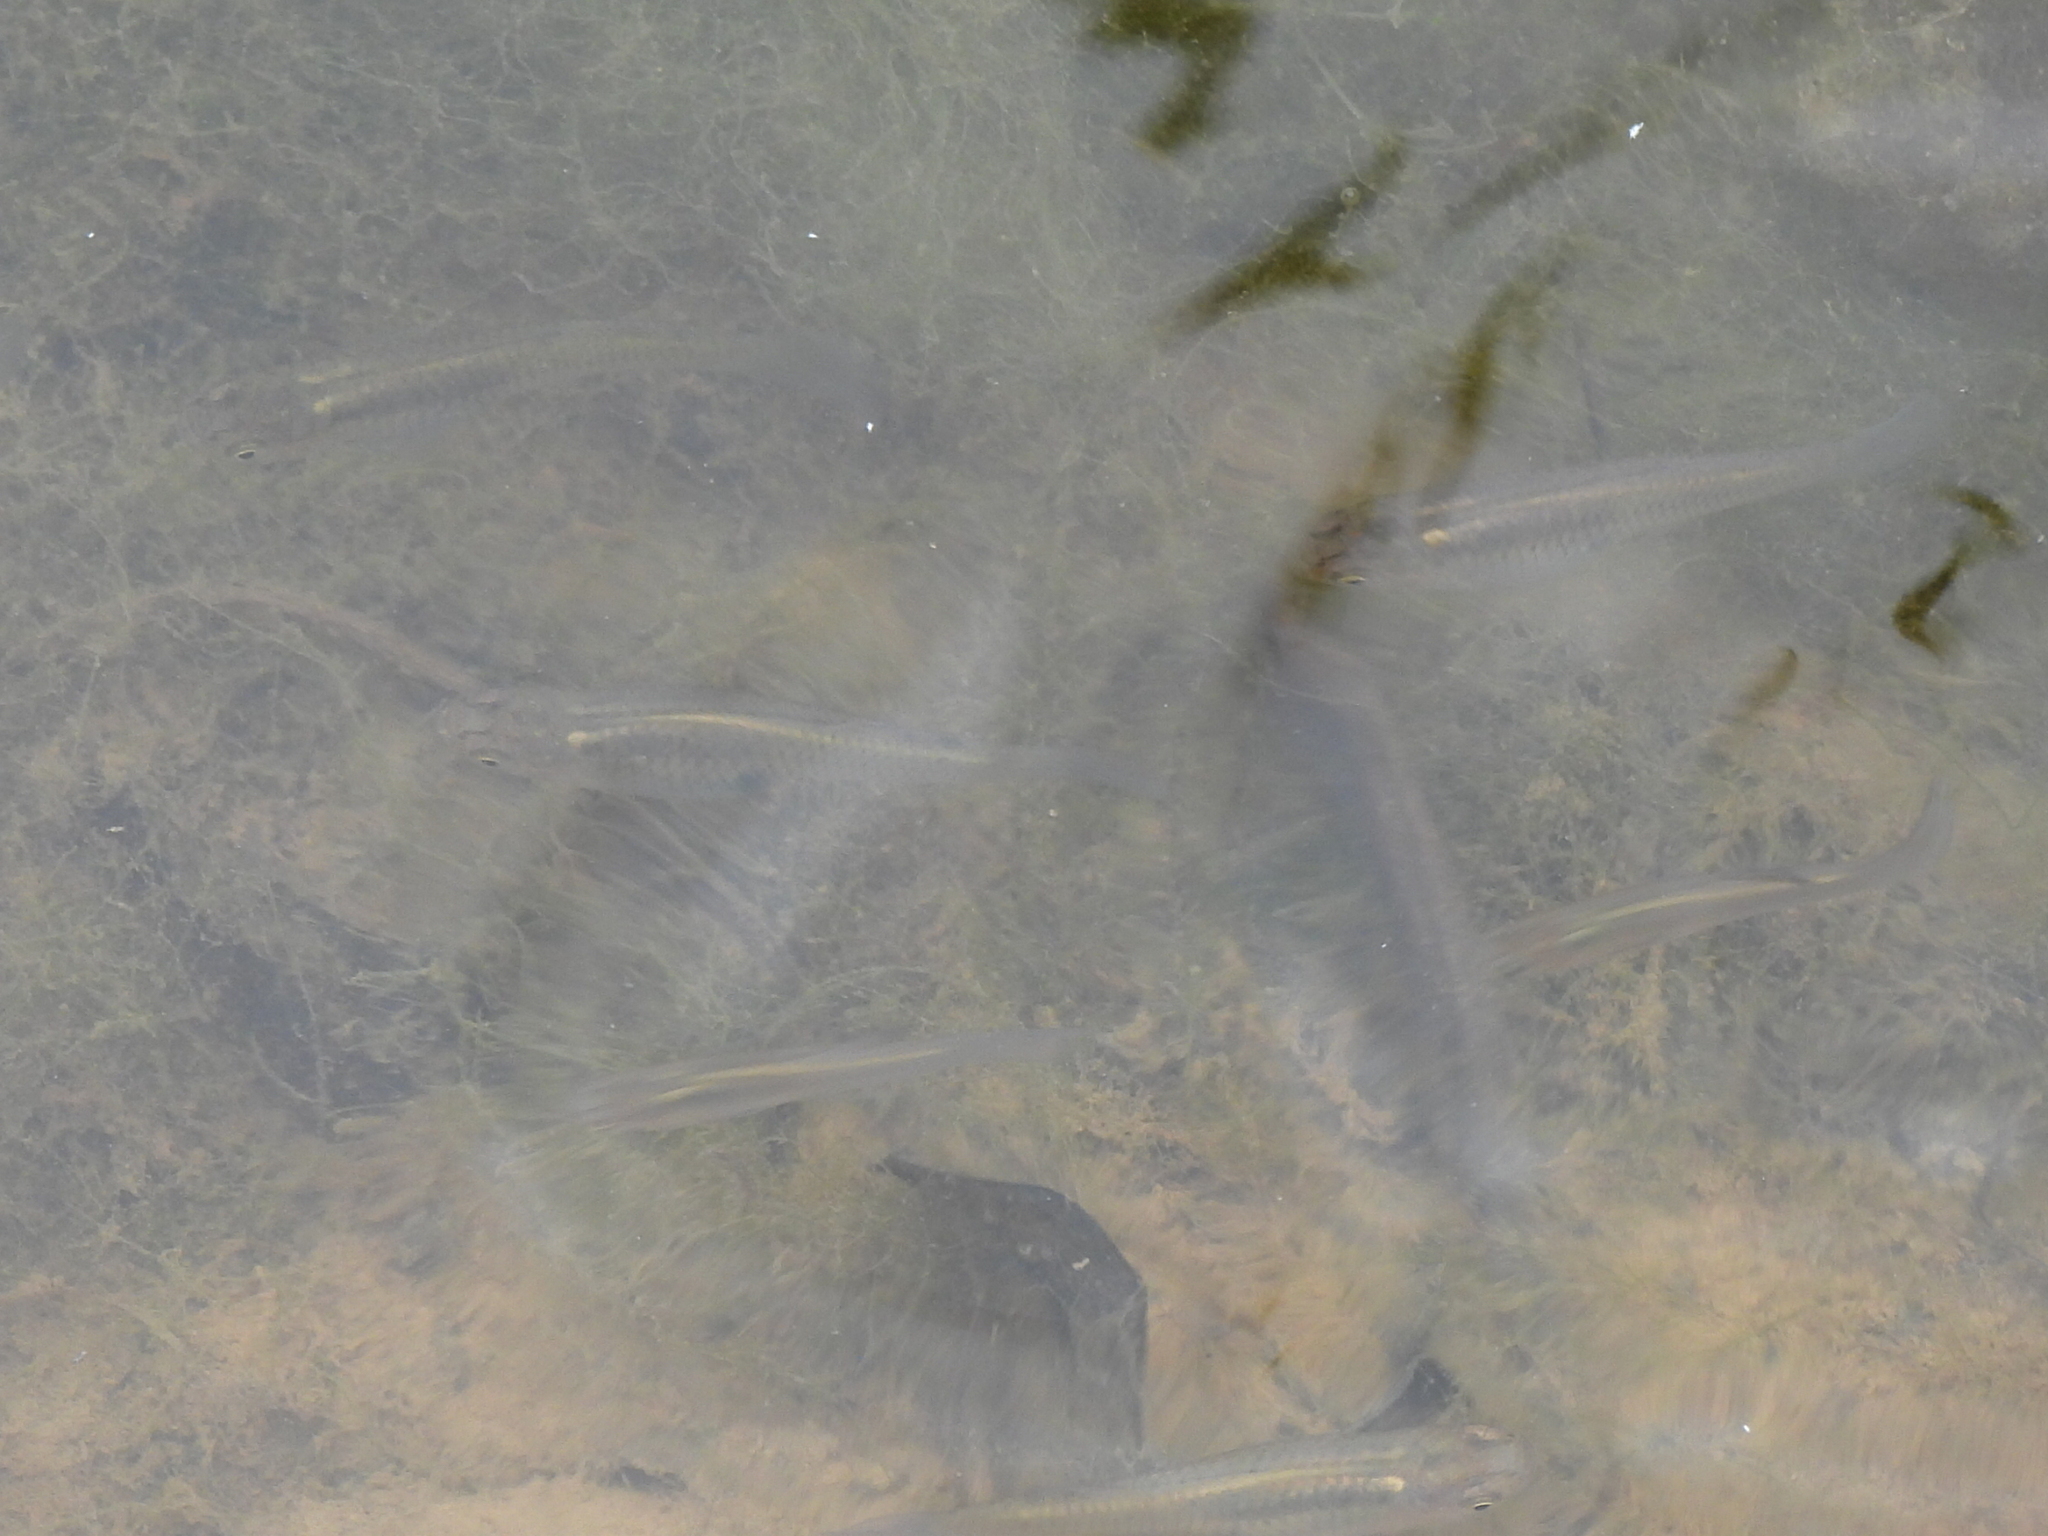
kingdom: Animalia
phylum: Chordata
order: Cyprinodontiformes
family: Poeciliidae
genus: Gambusia
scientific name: Gambusia affinis
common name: Mosquitofish
